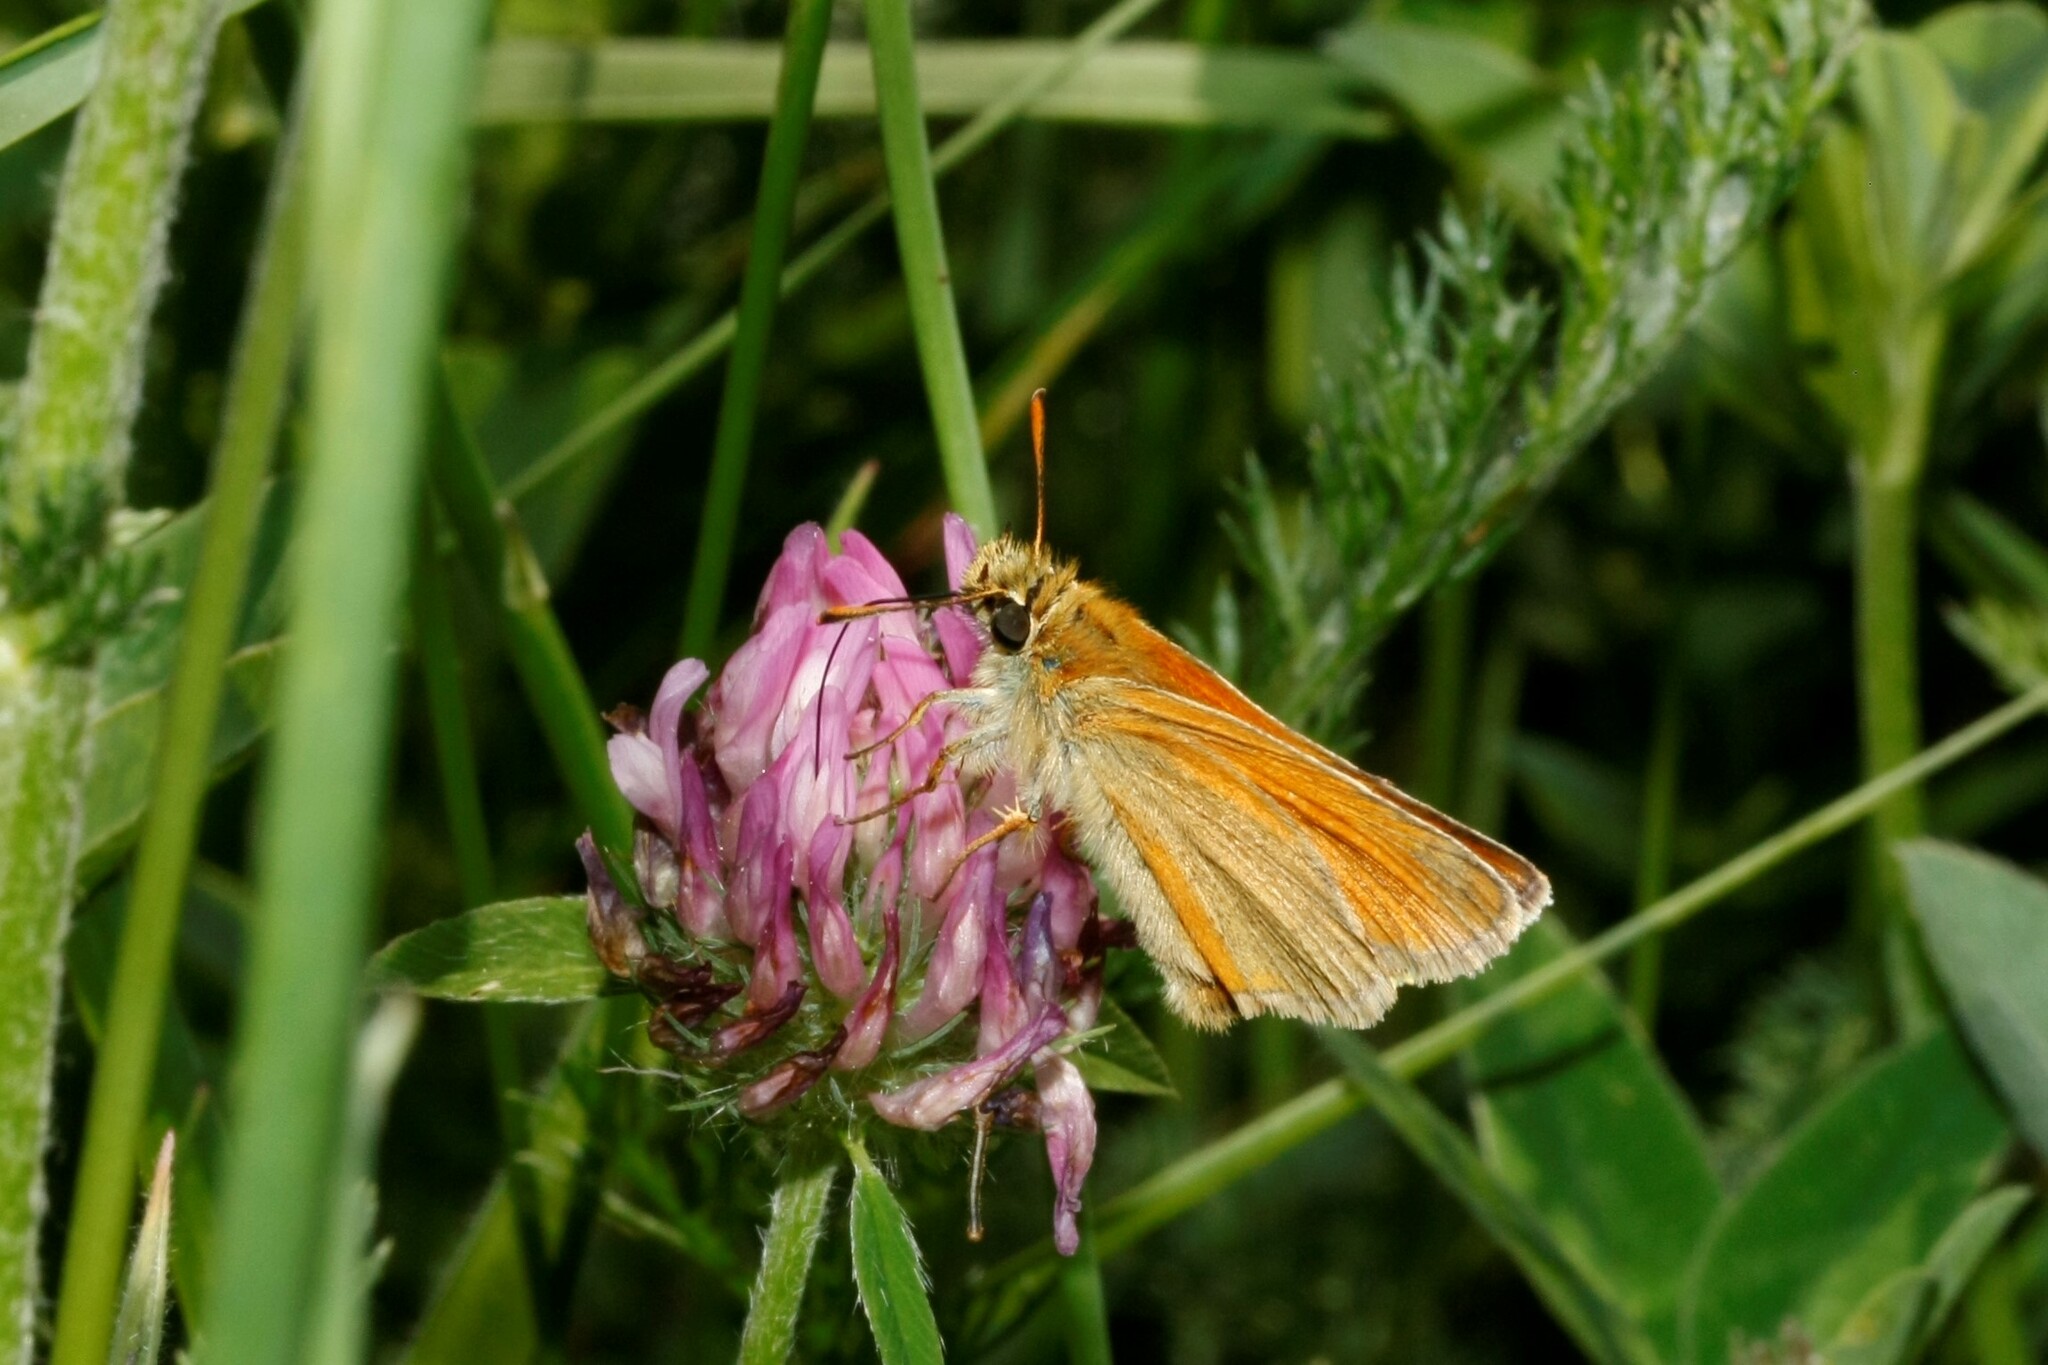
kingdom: Animalia
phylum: Arthropoda
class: Insecta
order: Lepidoptera
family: Hesperiidae
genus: Thymelicus
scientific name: Thymelicus sylvestris
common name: Small skipper
